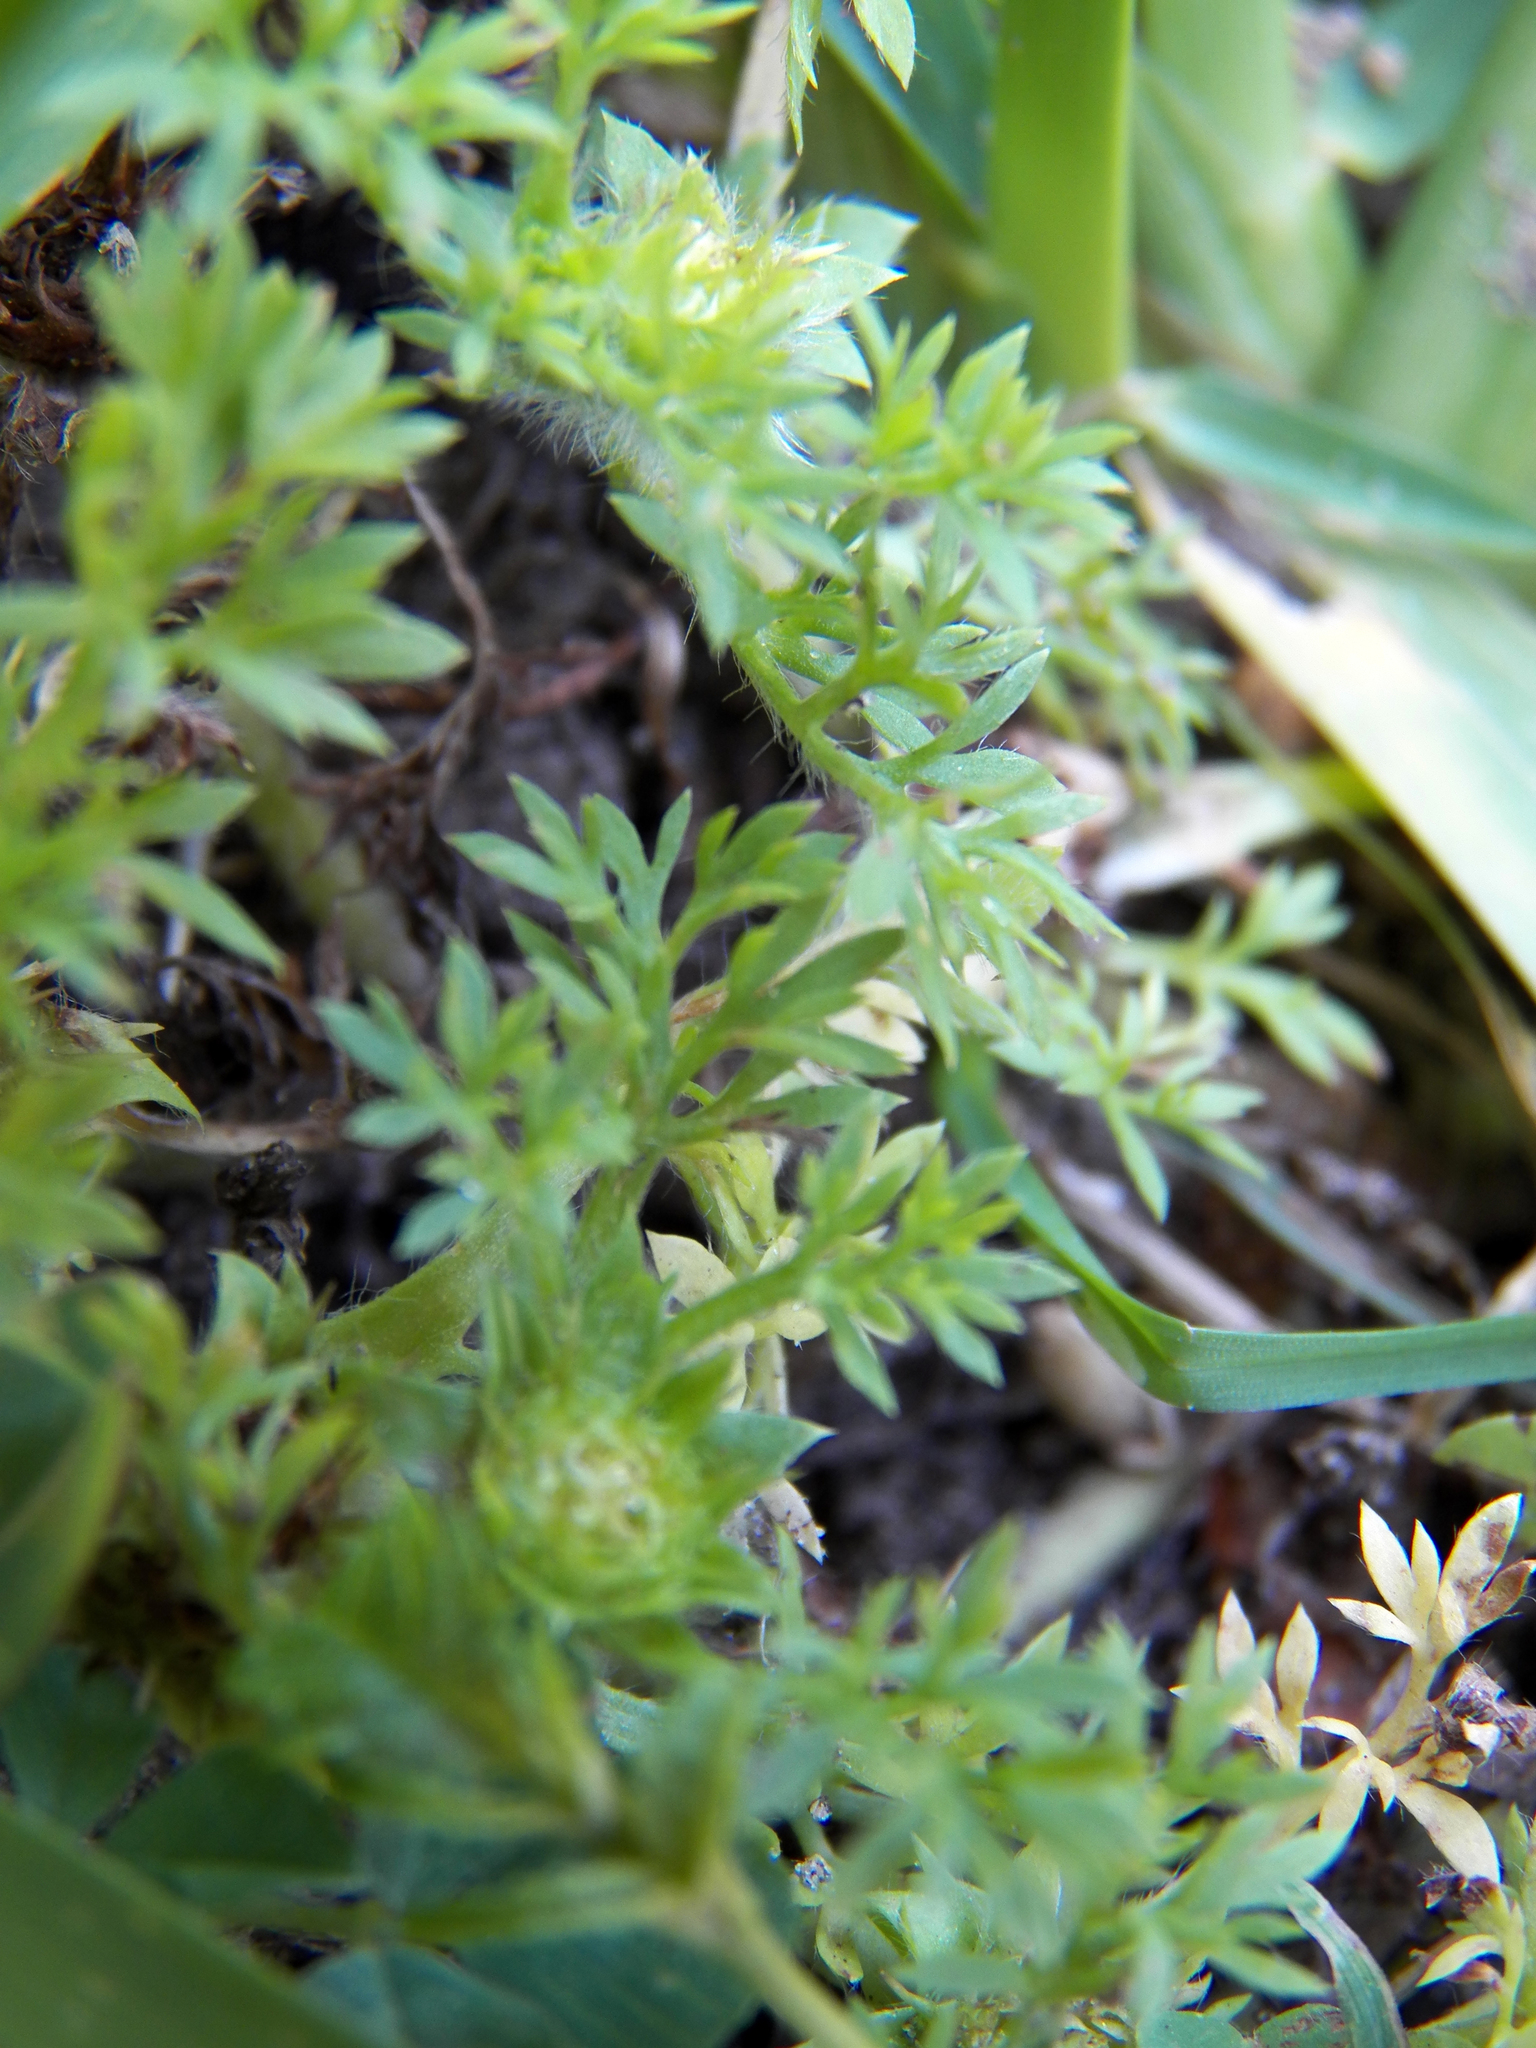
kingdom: Plantae
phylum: Tracheophyta
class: Magnoliopsida
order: Asterales
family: Asteraceae
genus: Soliva
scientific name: Soliva sessilis
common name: Field burrweed
